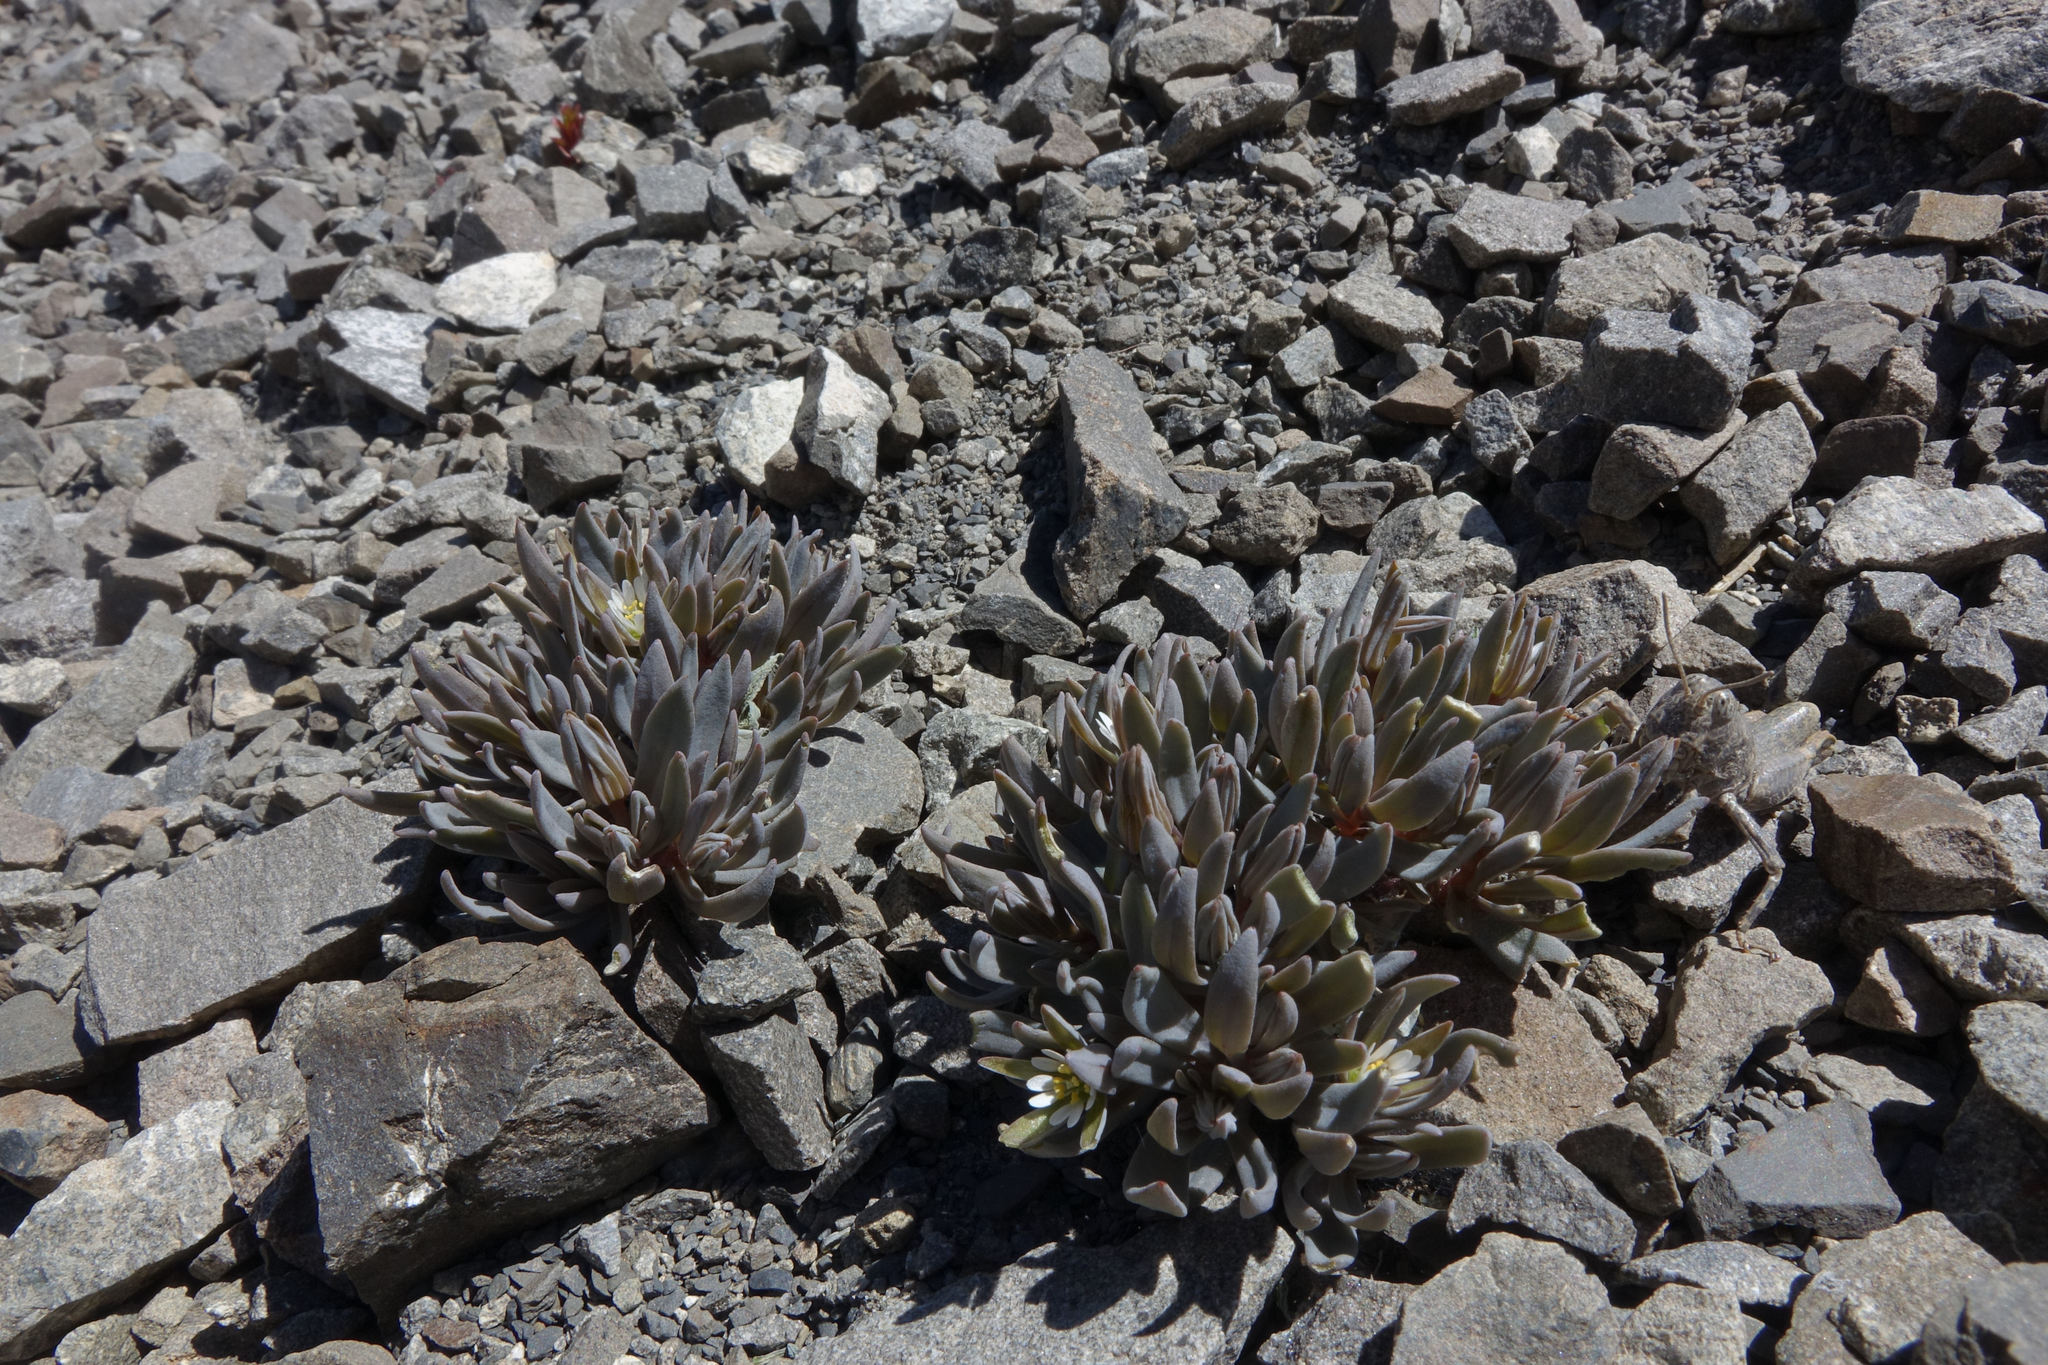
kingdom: Plantae
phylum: Tracheophyta
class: Magnoliopsida
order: Caryophyllales
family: Caryophyllaceae
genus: Stellaria
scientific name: Stellaria roughii
